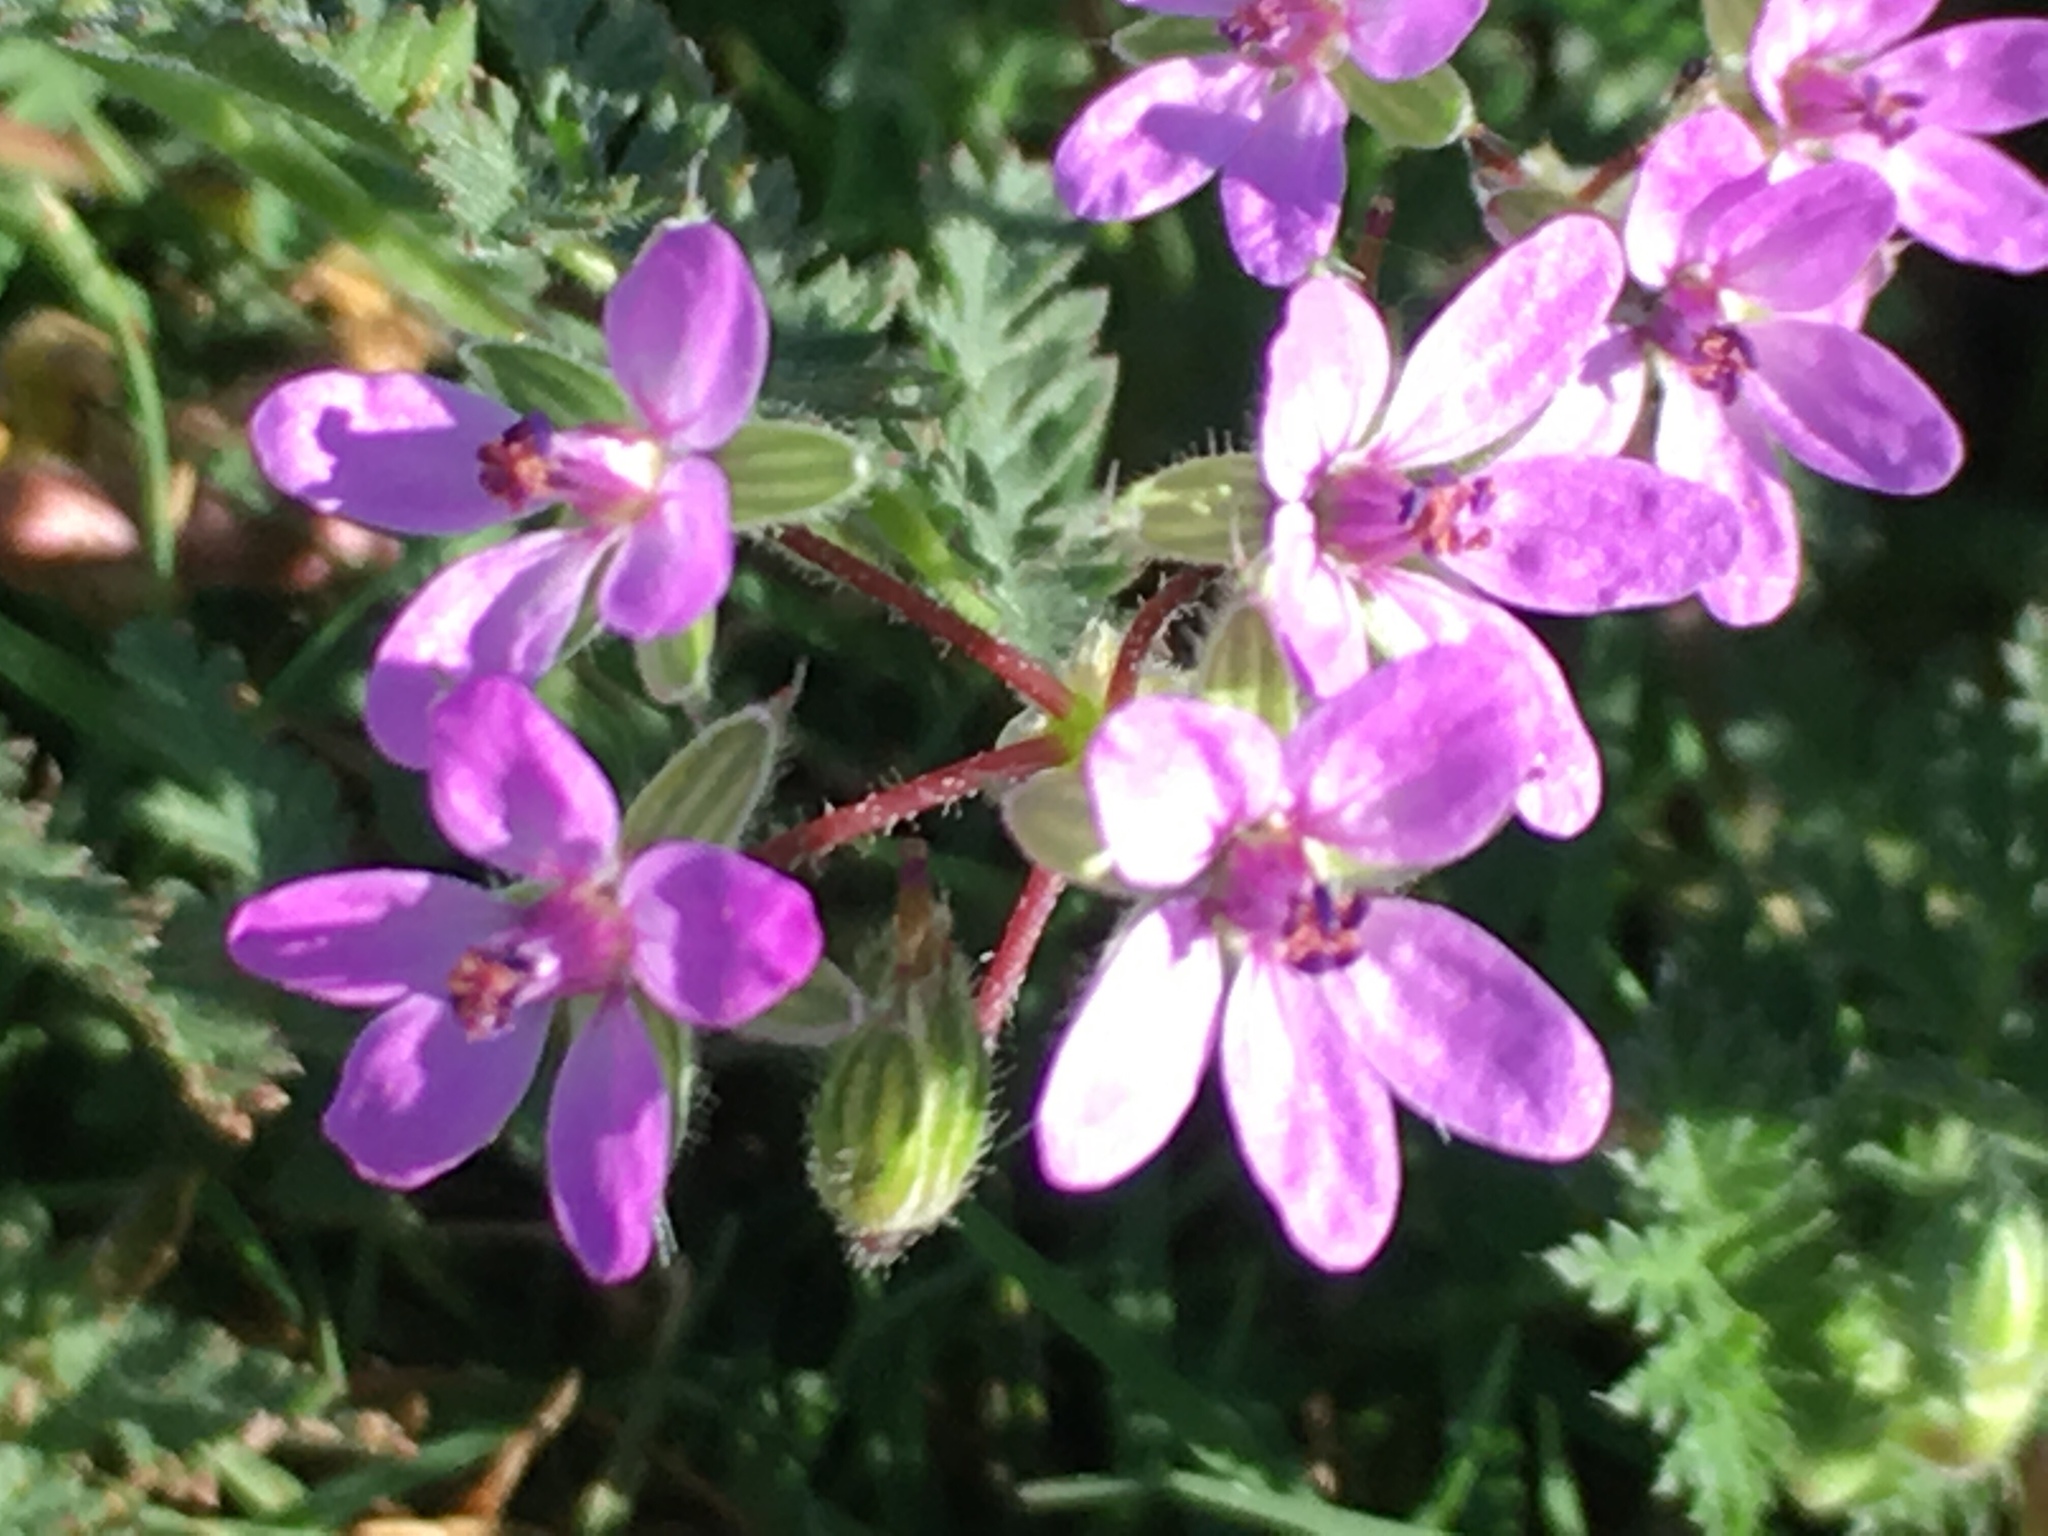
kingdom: Animalia
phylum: Arthropoda
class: Insecta
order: Diptera
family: Syrphidae
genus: Toxomerus
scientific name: Toxomerus marginatus
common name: Syrphid fly
